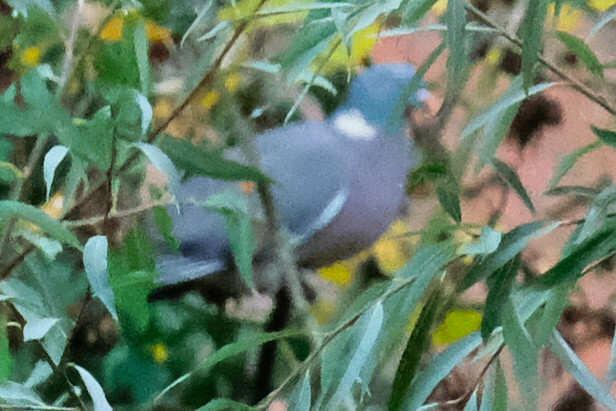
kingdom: Animalia
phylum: Chordata
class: Aves
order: Columbiformes
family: Columbidae
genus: Columba
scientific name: Columba palumbus
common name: Common wood pigeon
